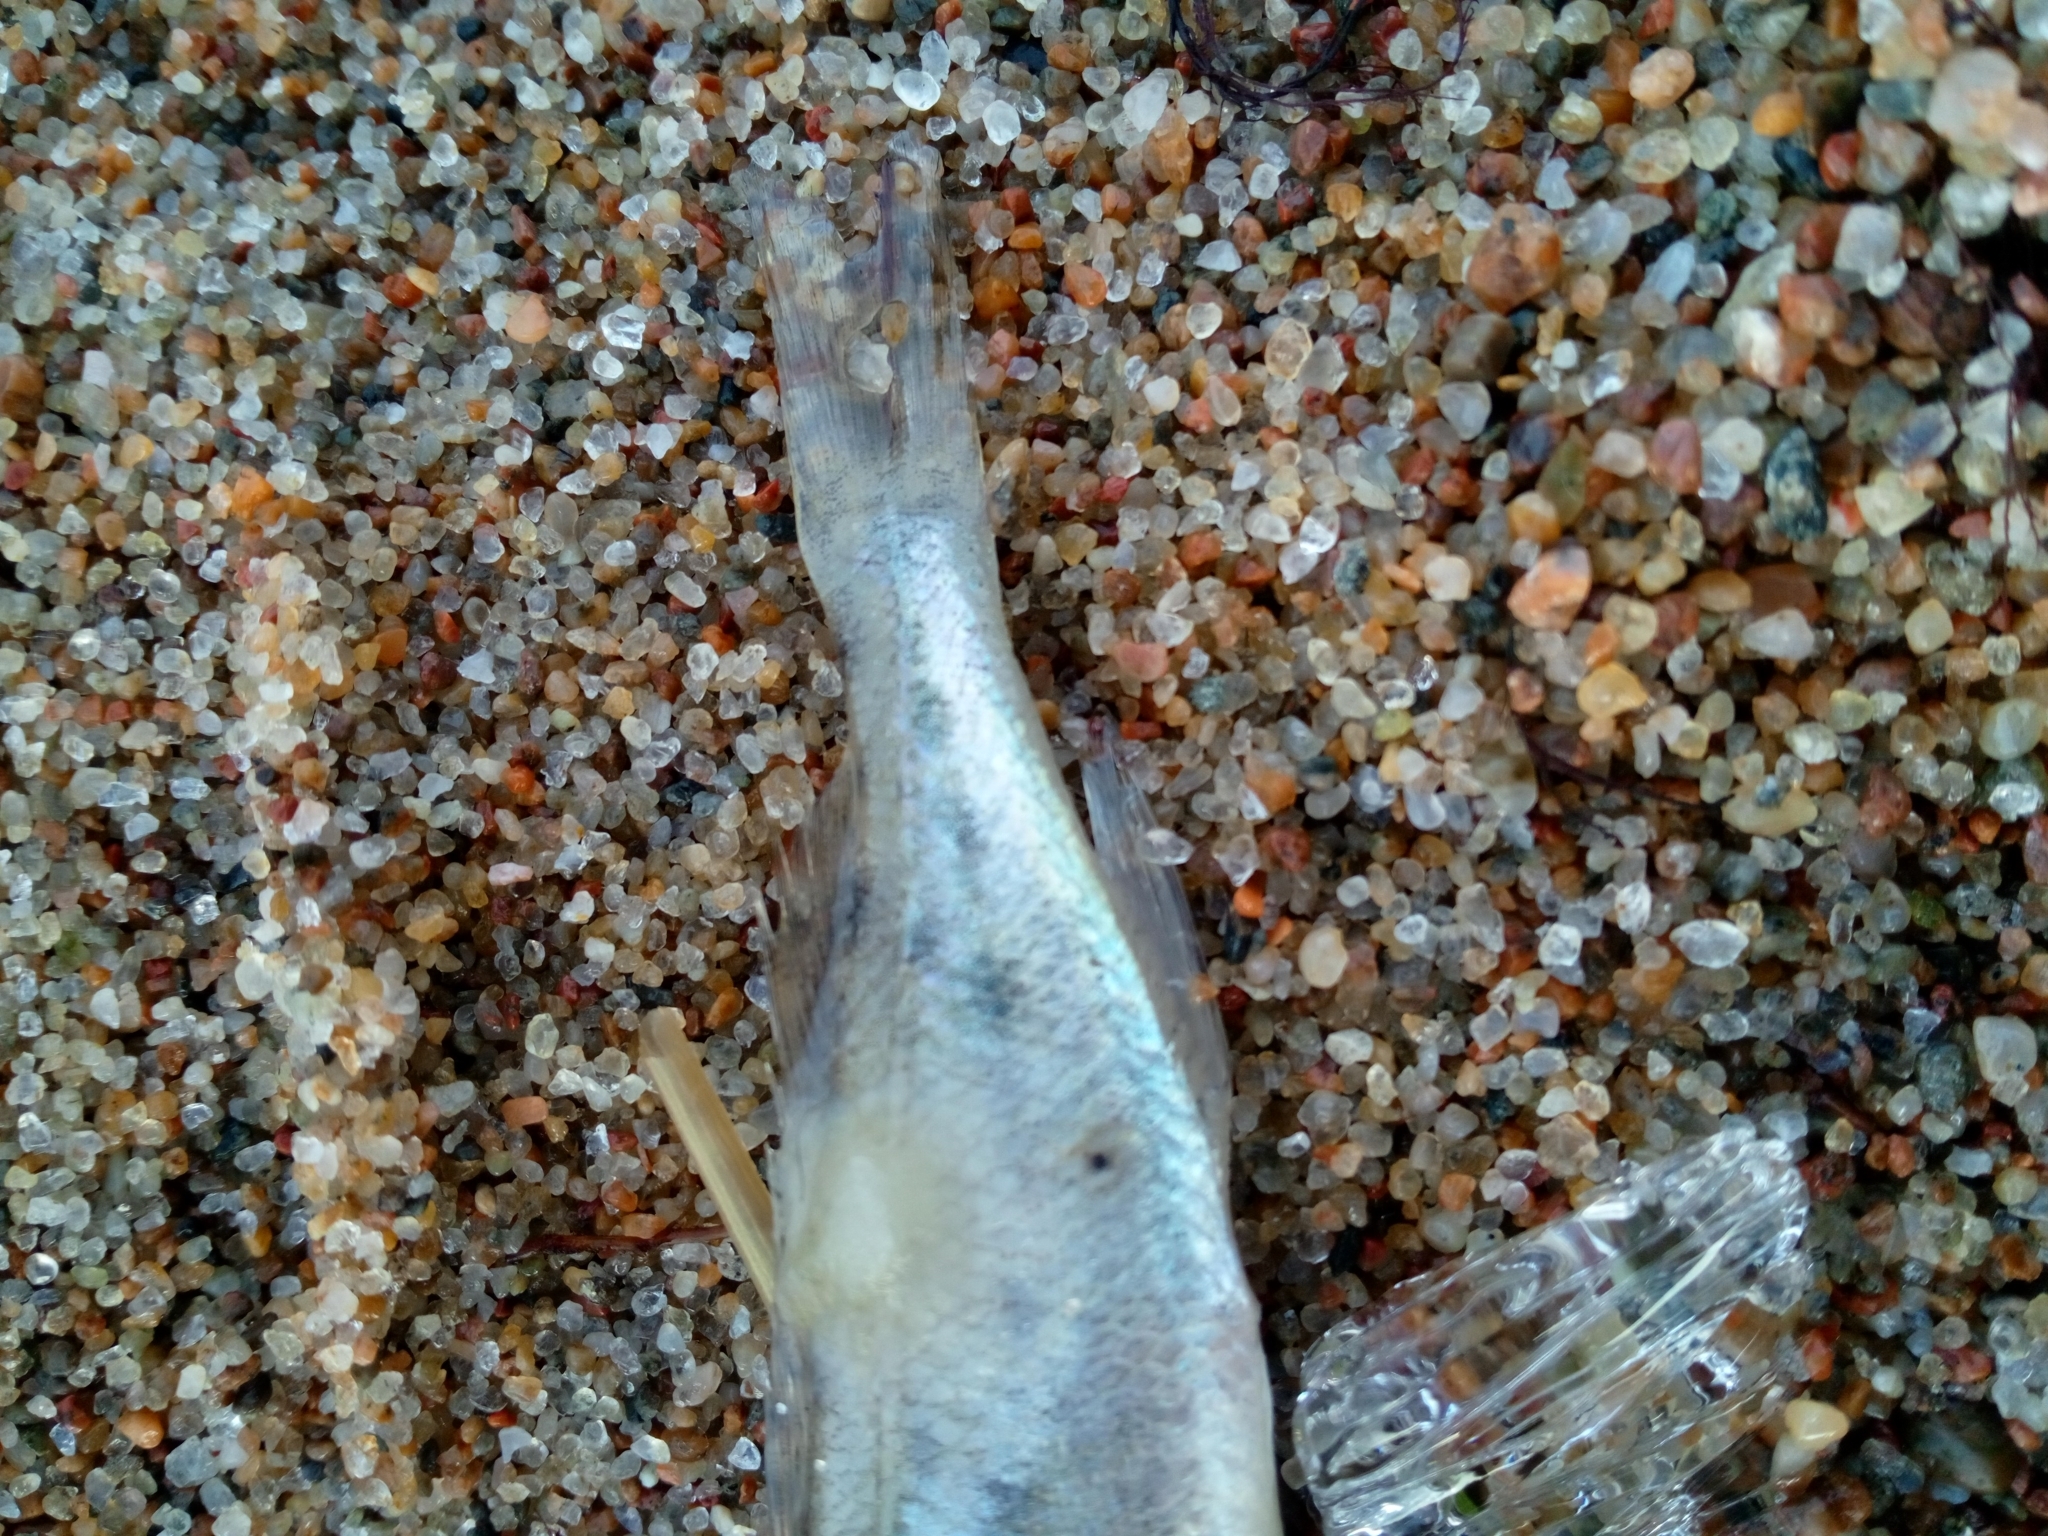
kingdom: Animalia
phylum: Chordata
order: Perciformes
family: Percidae
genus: Gymnocephalus
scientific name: Gymnocephalus cernua
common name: Ruffe
